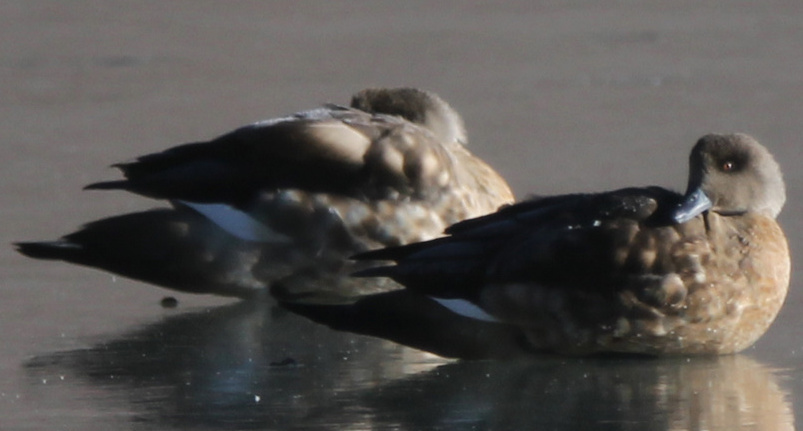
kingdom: Animalia
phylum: Chordata
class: Aves
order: Anseriformes
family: Anatidae
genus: Lophonetta
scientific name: Lophonetta specularioides
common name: Crested duck
